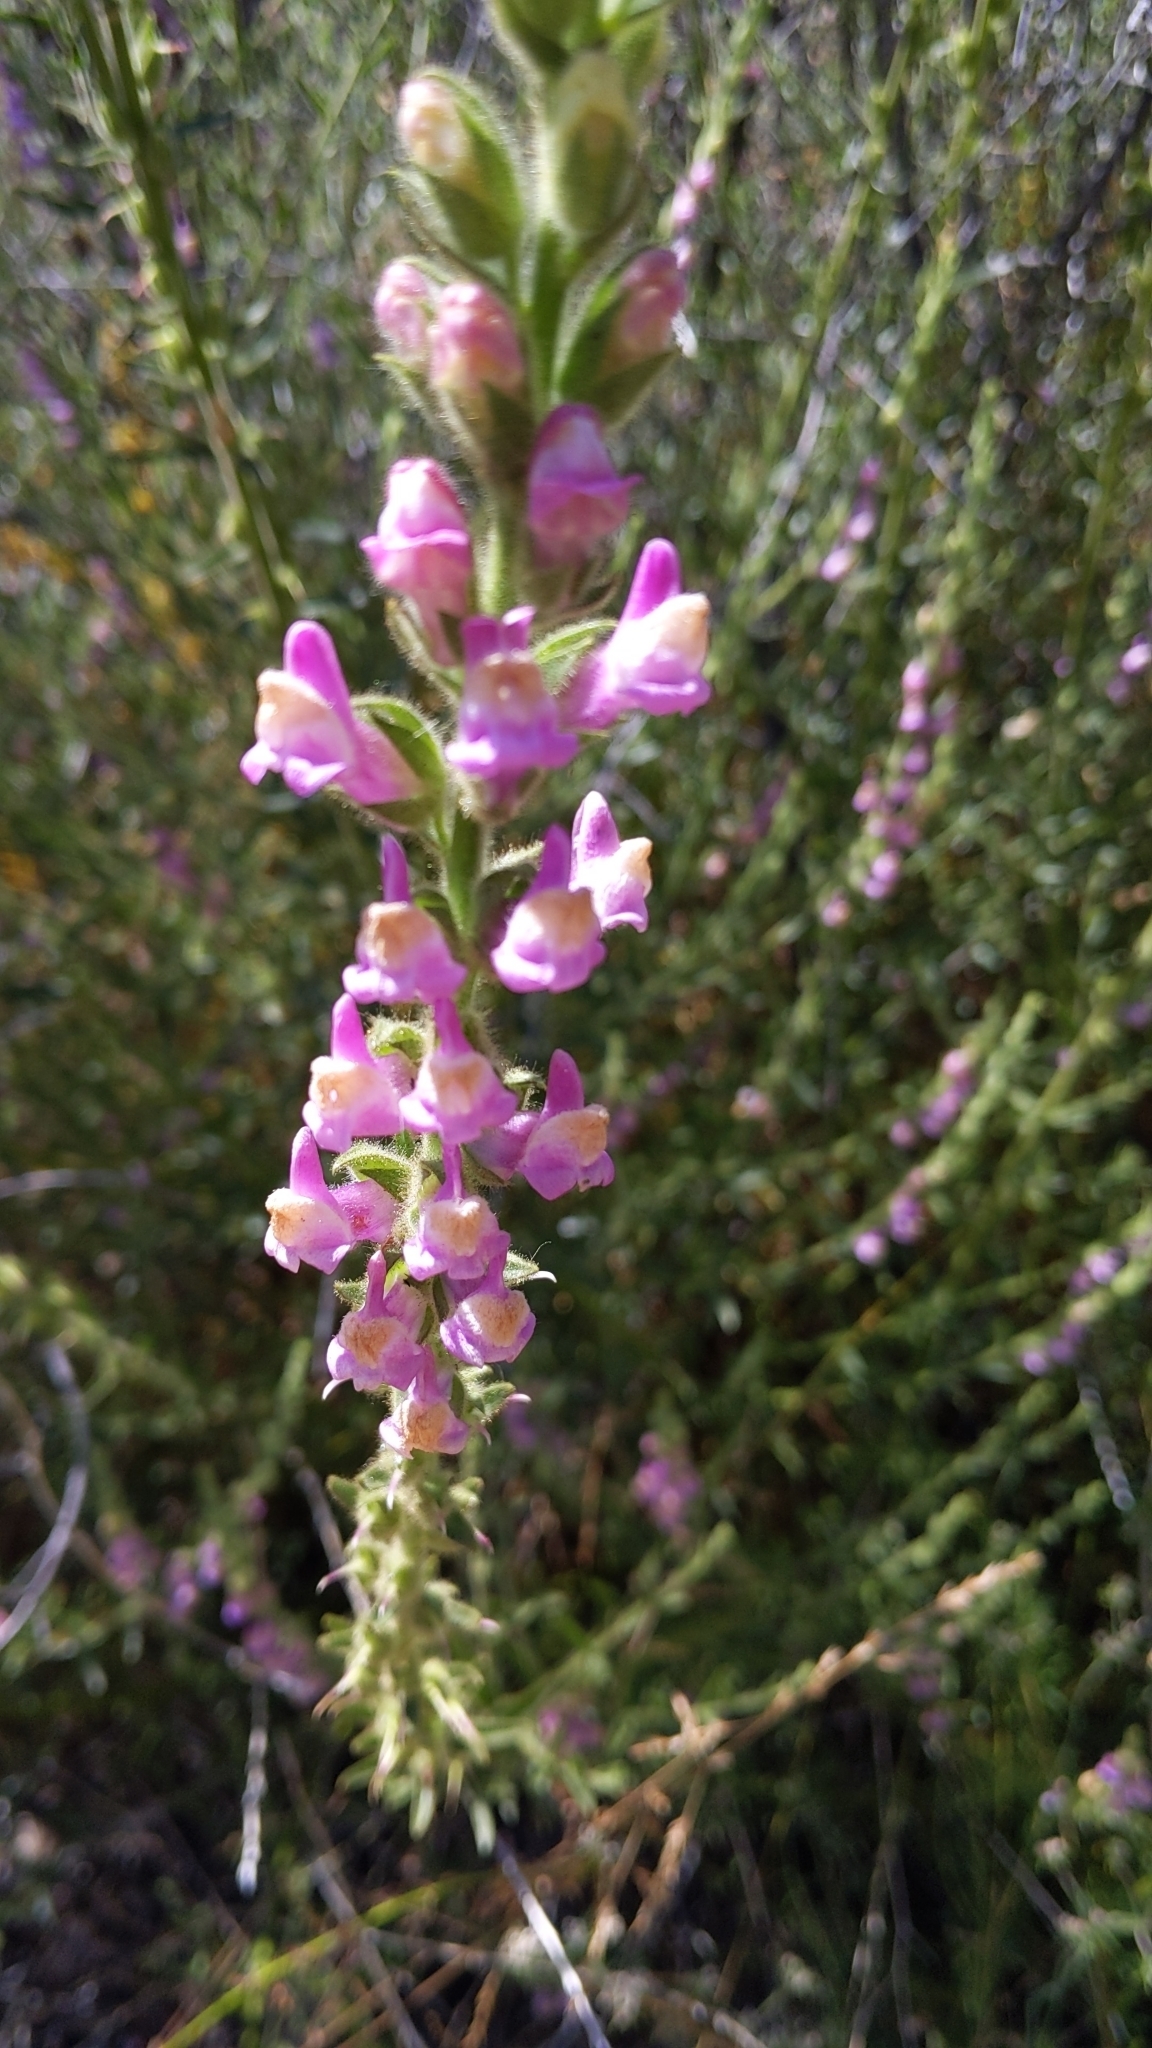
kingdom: Plantae
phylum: Tracheophyta
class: Magnoliopsida
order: Lamiales
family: Plantaginaceae
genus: Sairocarpus
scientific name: Sairocarpus multiflorus
